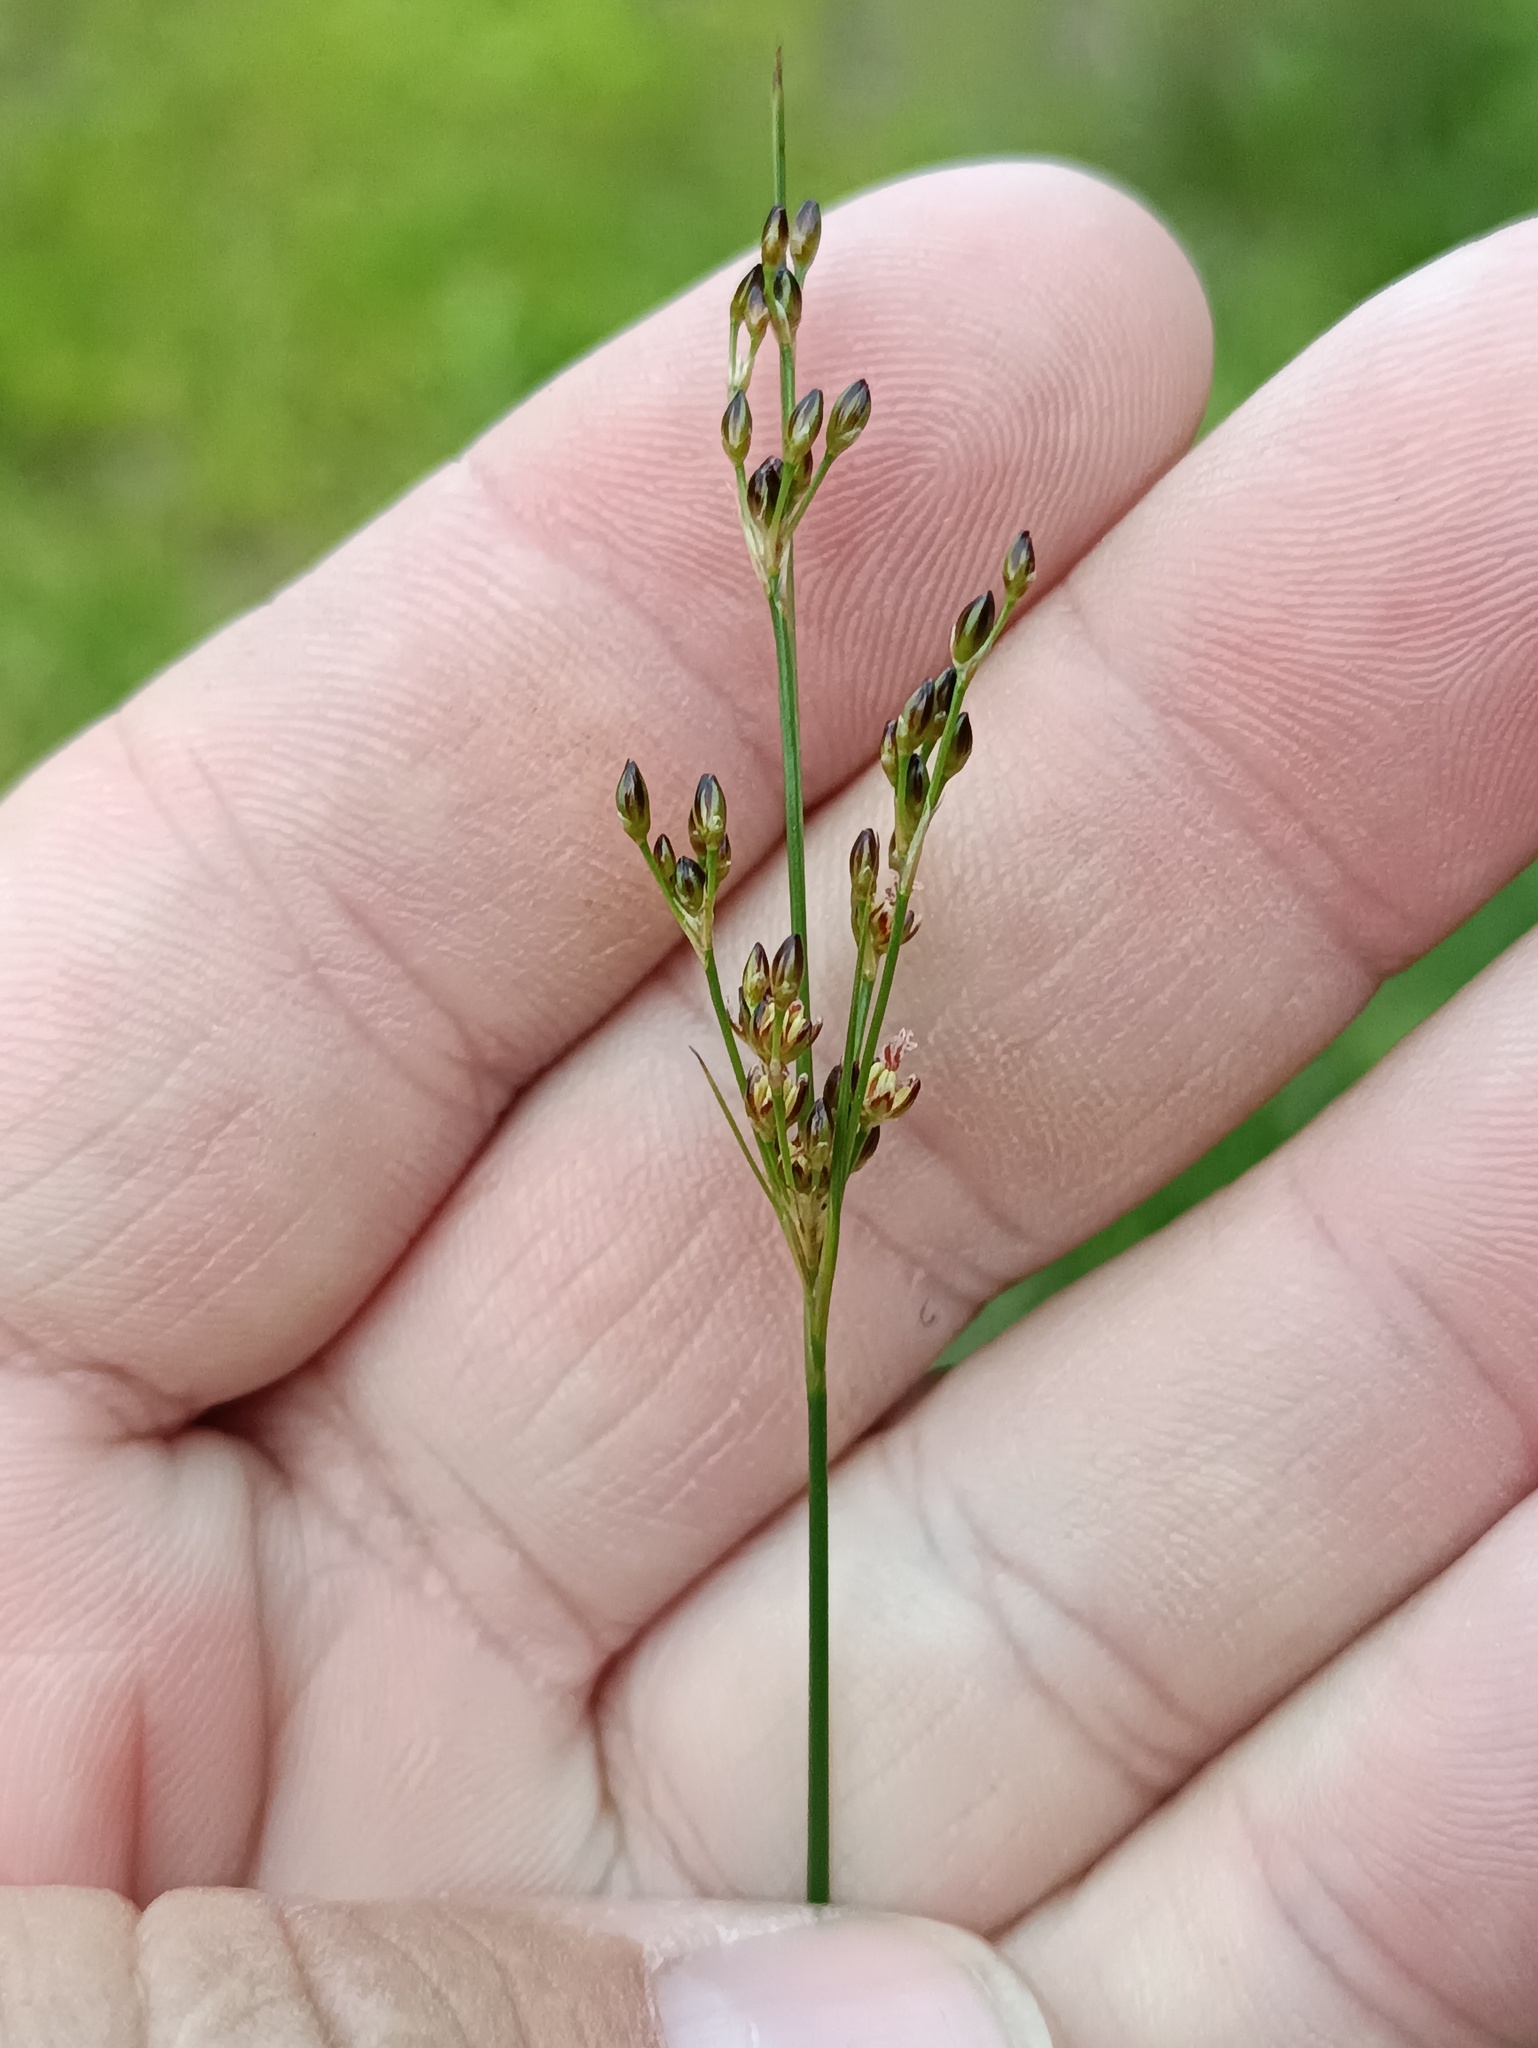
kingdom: Plantae
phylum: Tracheophyta
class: Liliopsida
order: Poales
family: Juncaceae
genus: Juncus
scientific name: Juncus compressus
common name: Round-fruited rush
